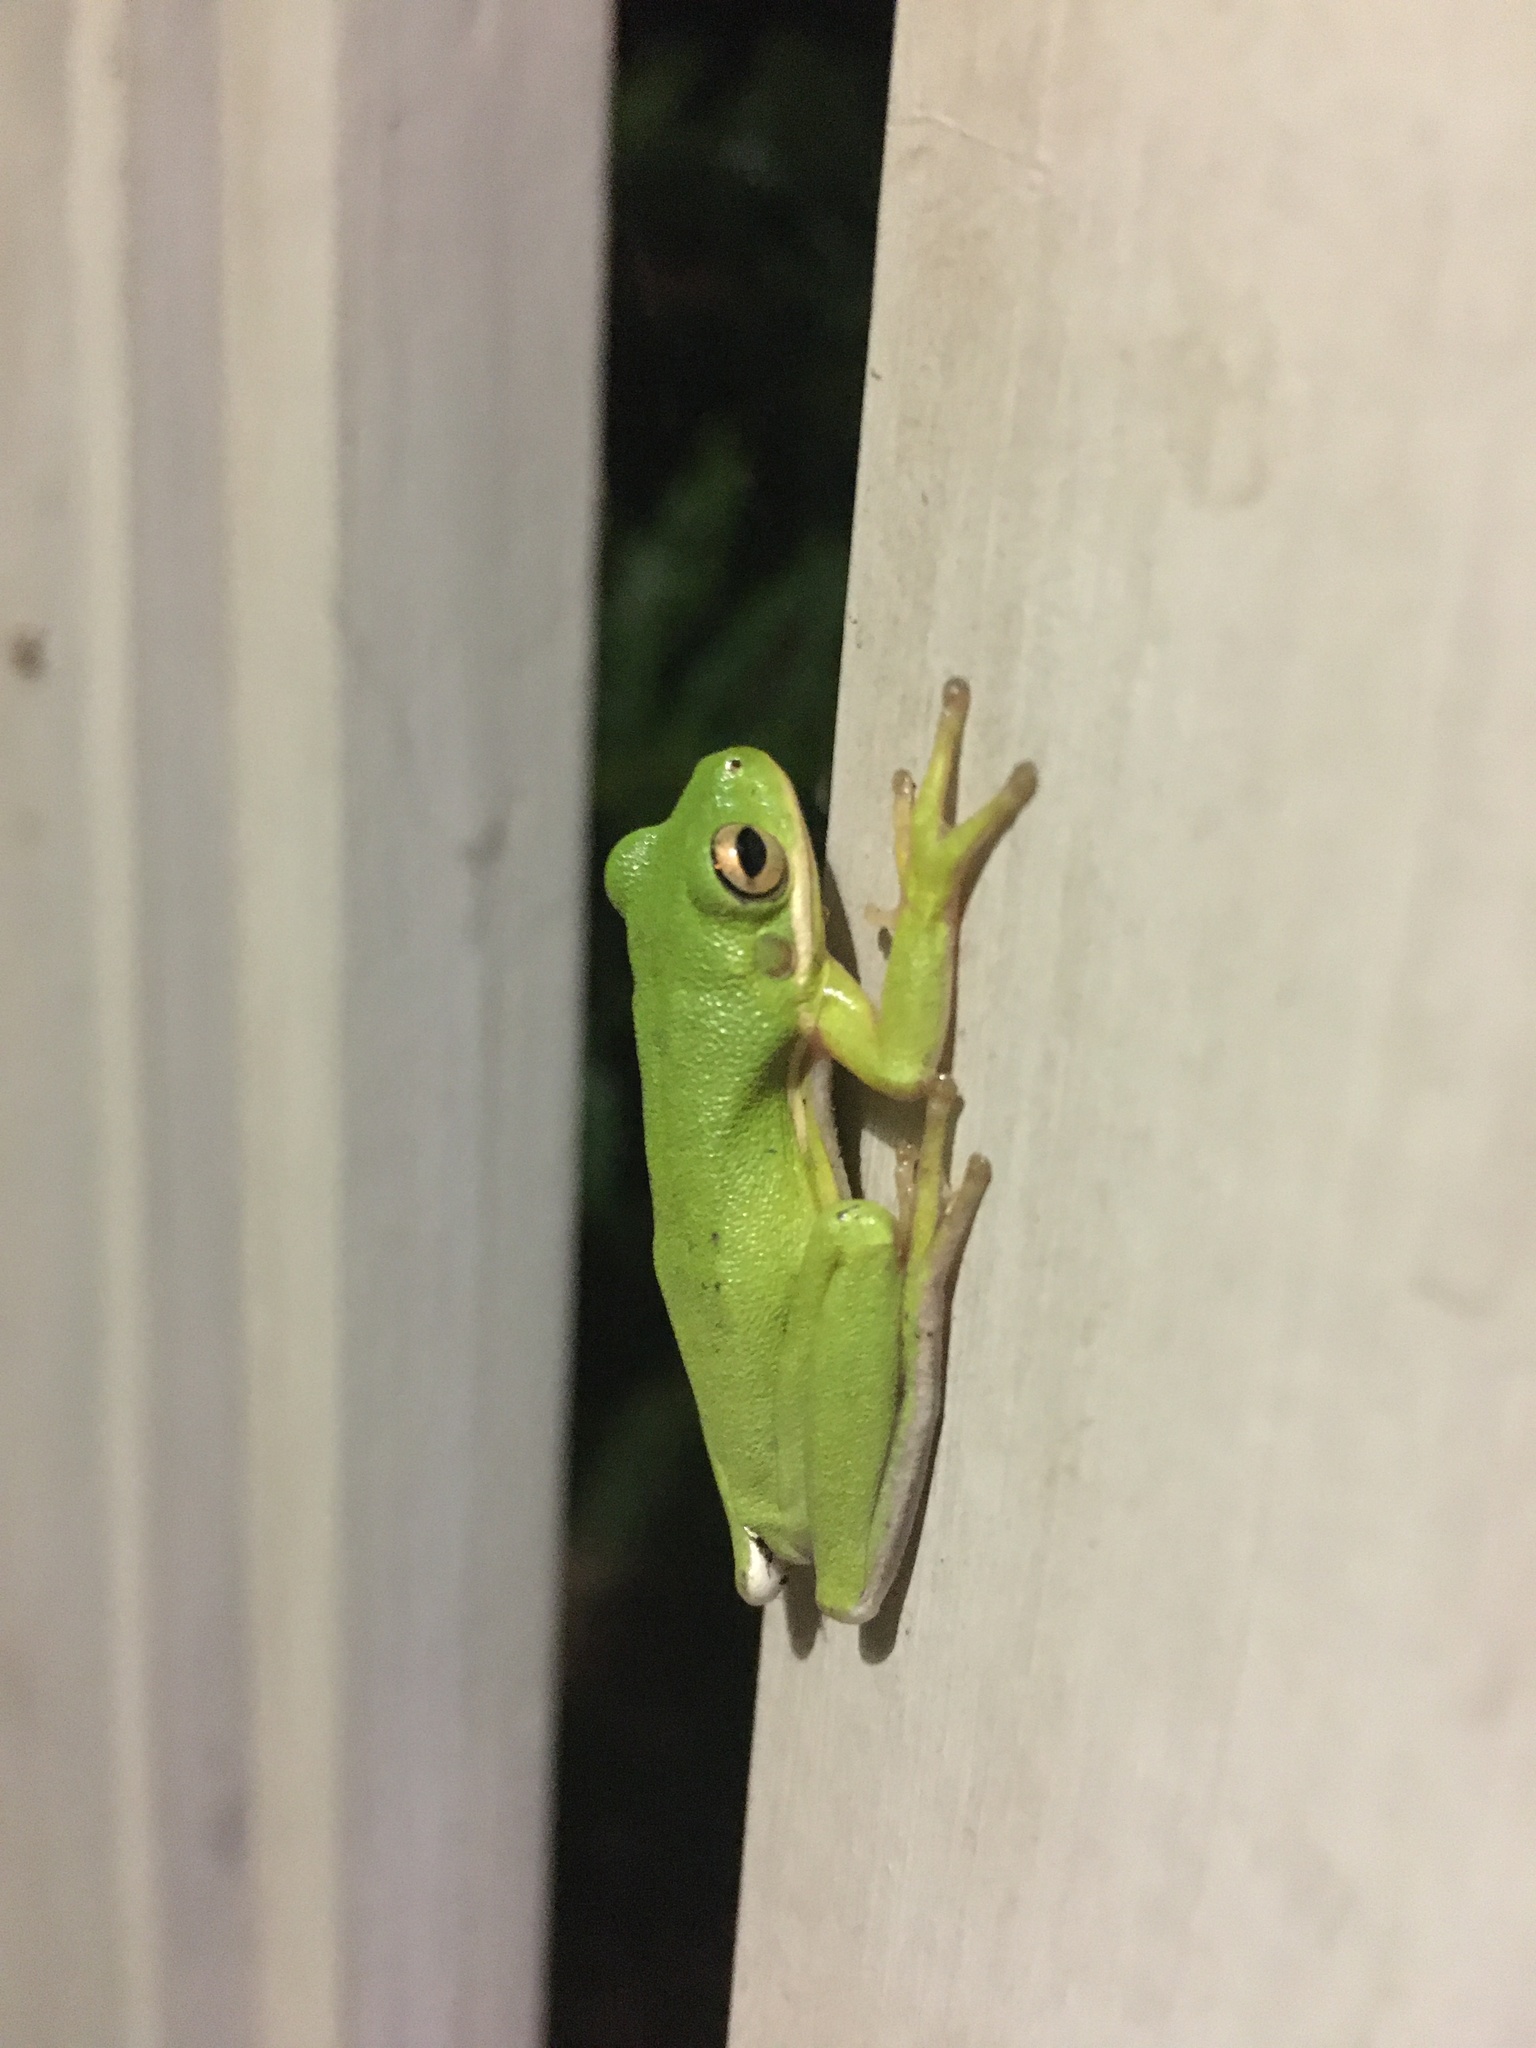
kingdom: Animalia
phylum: Chordata
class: Amphibia
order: Anura
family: Hylidae
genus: Dryophytes
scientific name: Dryophytes cinereus
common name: Green treefrog
